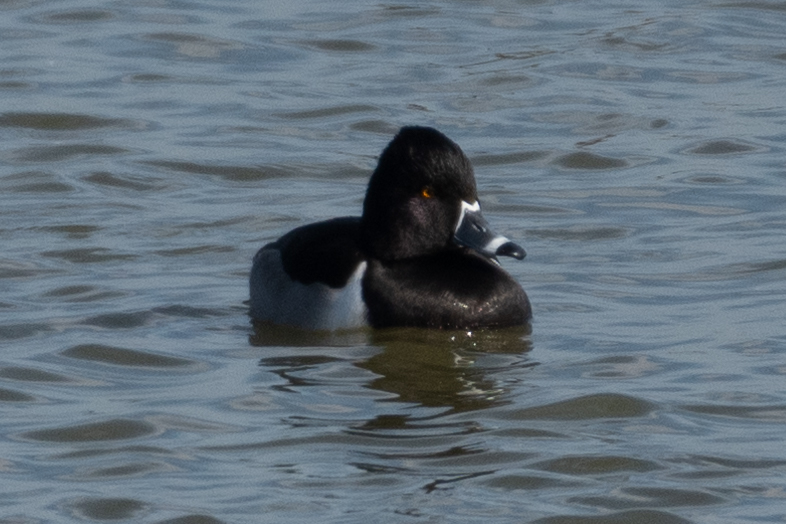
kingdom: Animalia
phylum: Chordata
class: Aves
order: Anseriformes
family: Anatidae
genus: Aythya
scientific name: Aythya collaris
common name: Ring-necked duck
